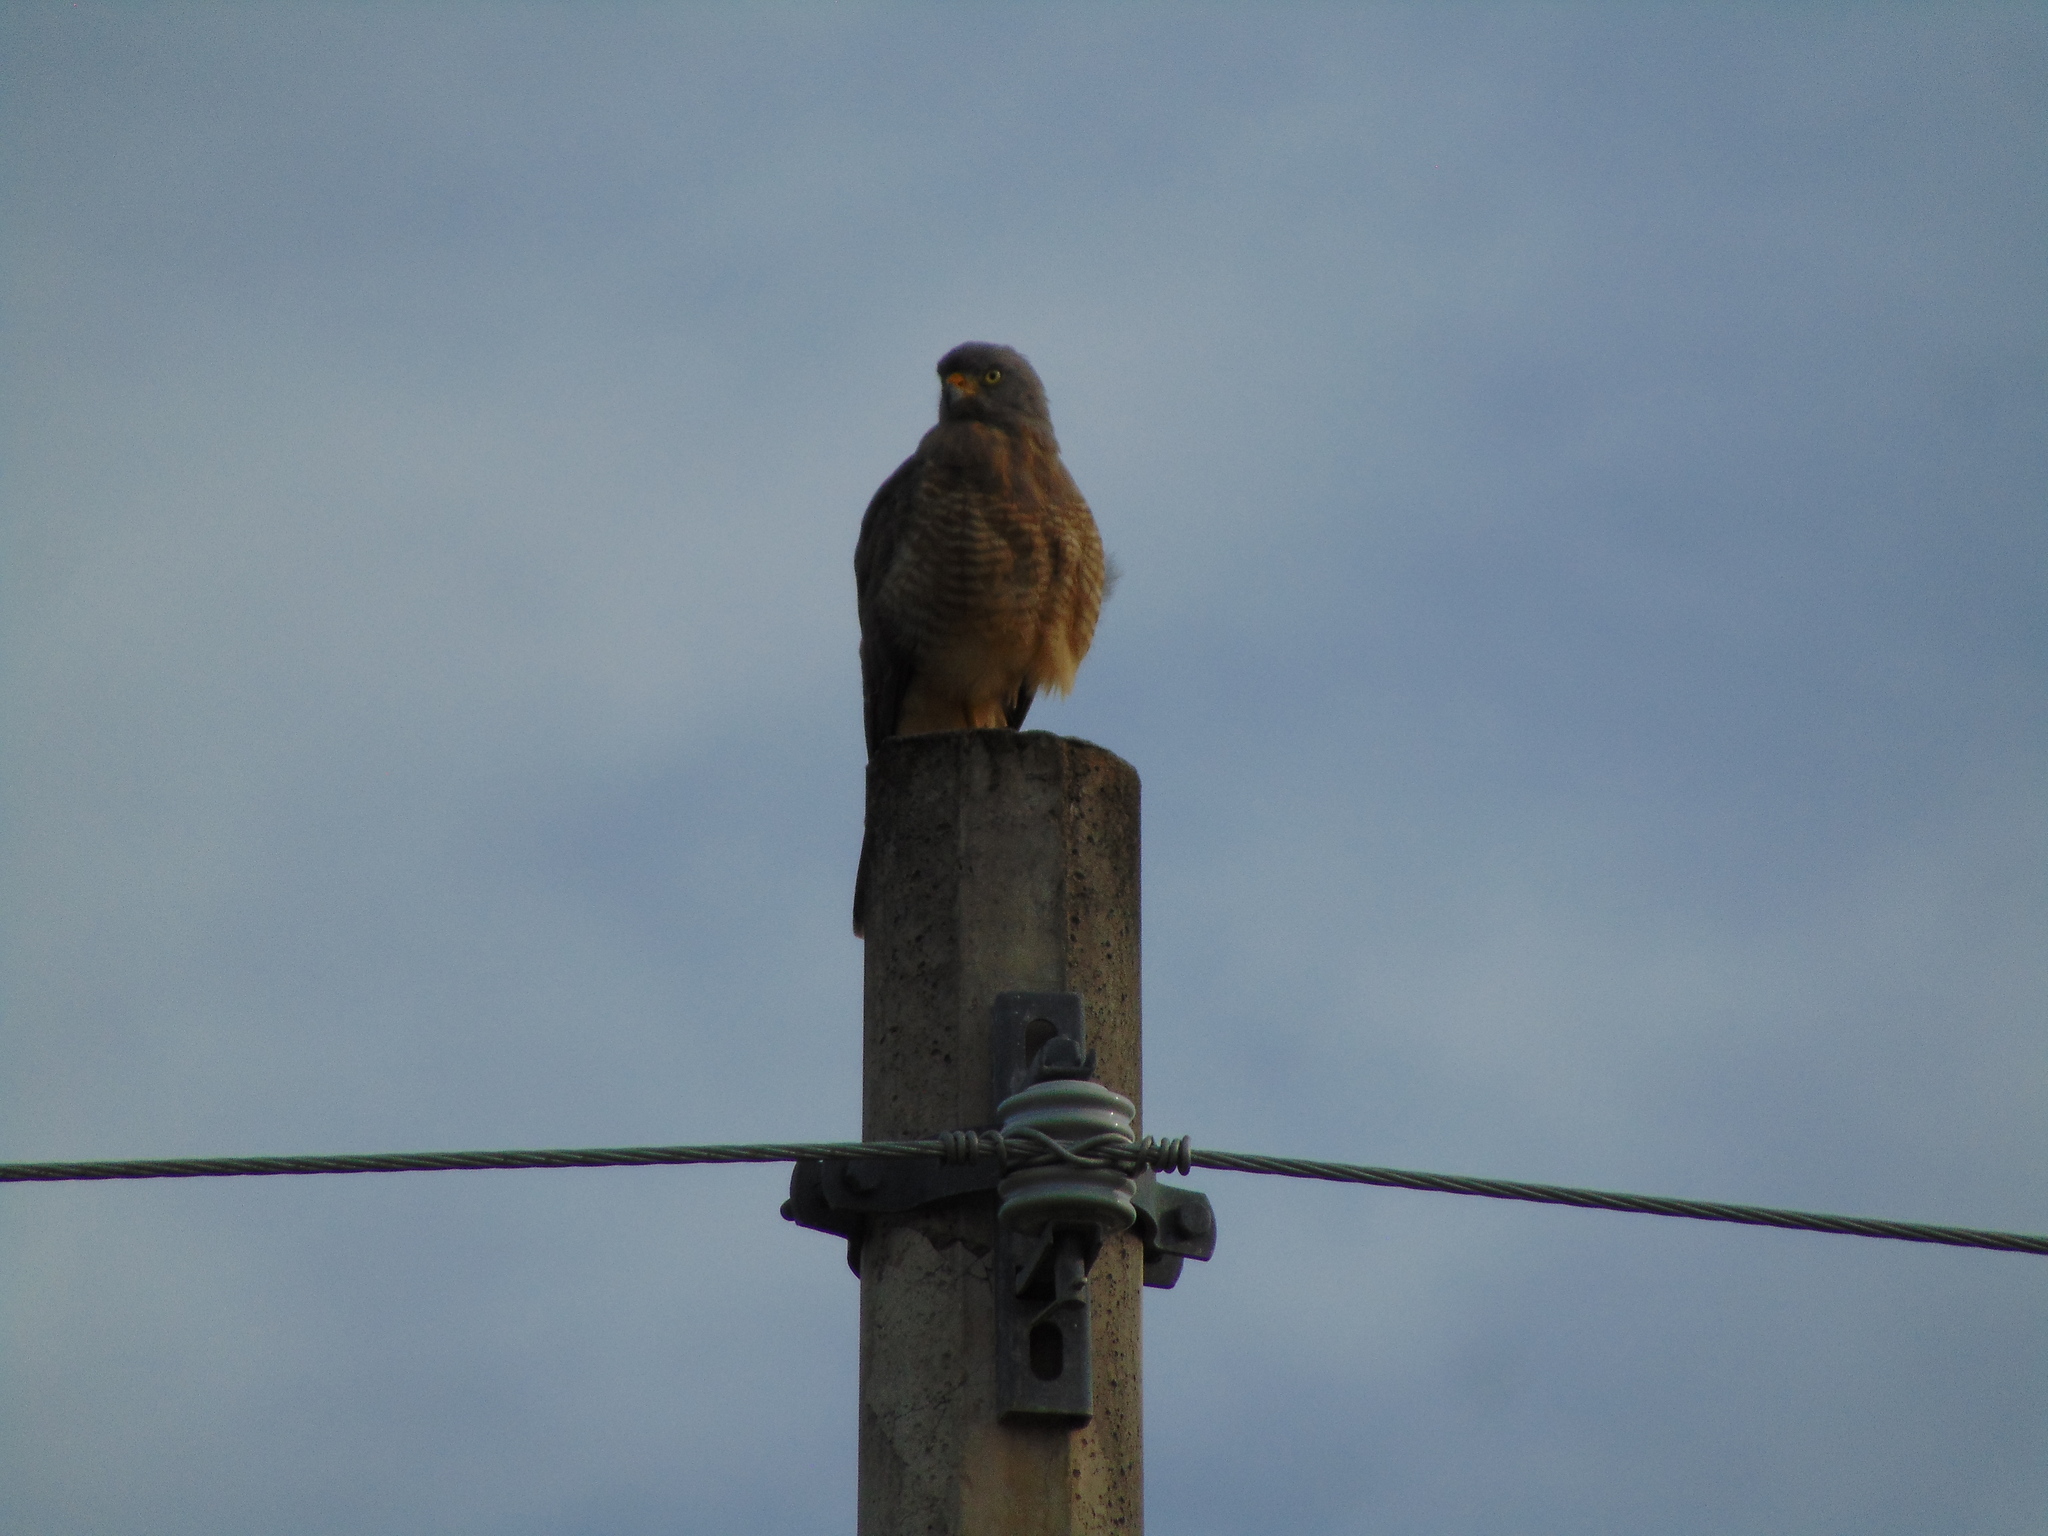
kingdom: Animalia
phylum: Chordata
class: Aves
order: Accipitriformes
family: Accipitridae
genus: Rupornis
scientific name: Rupornis magnirostris
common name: Roadside hawk
